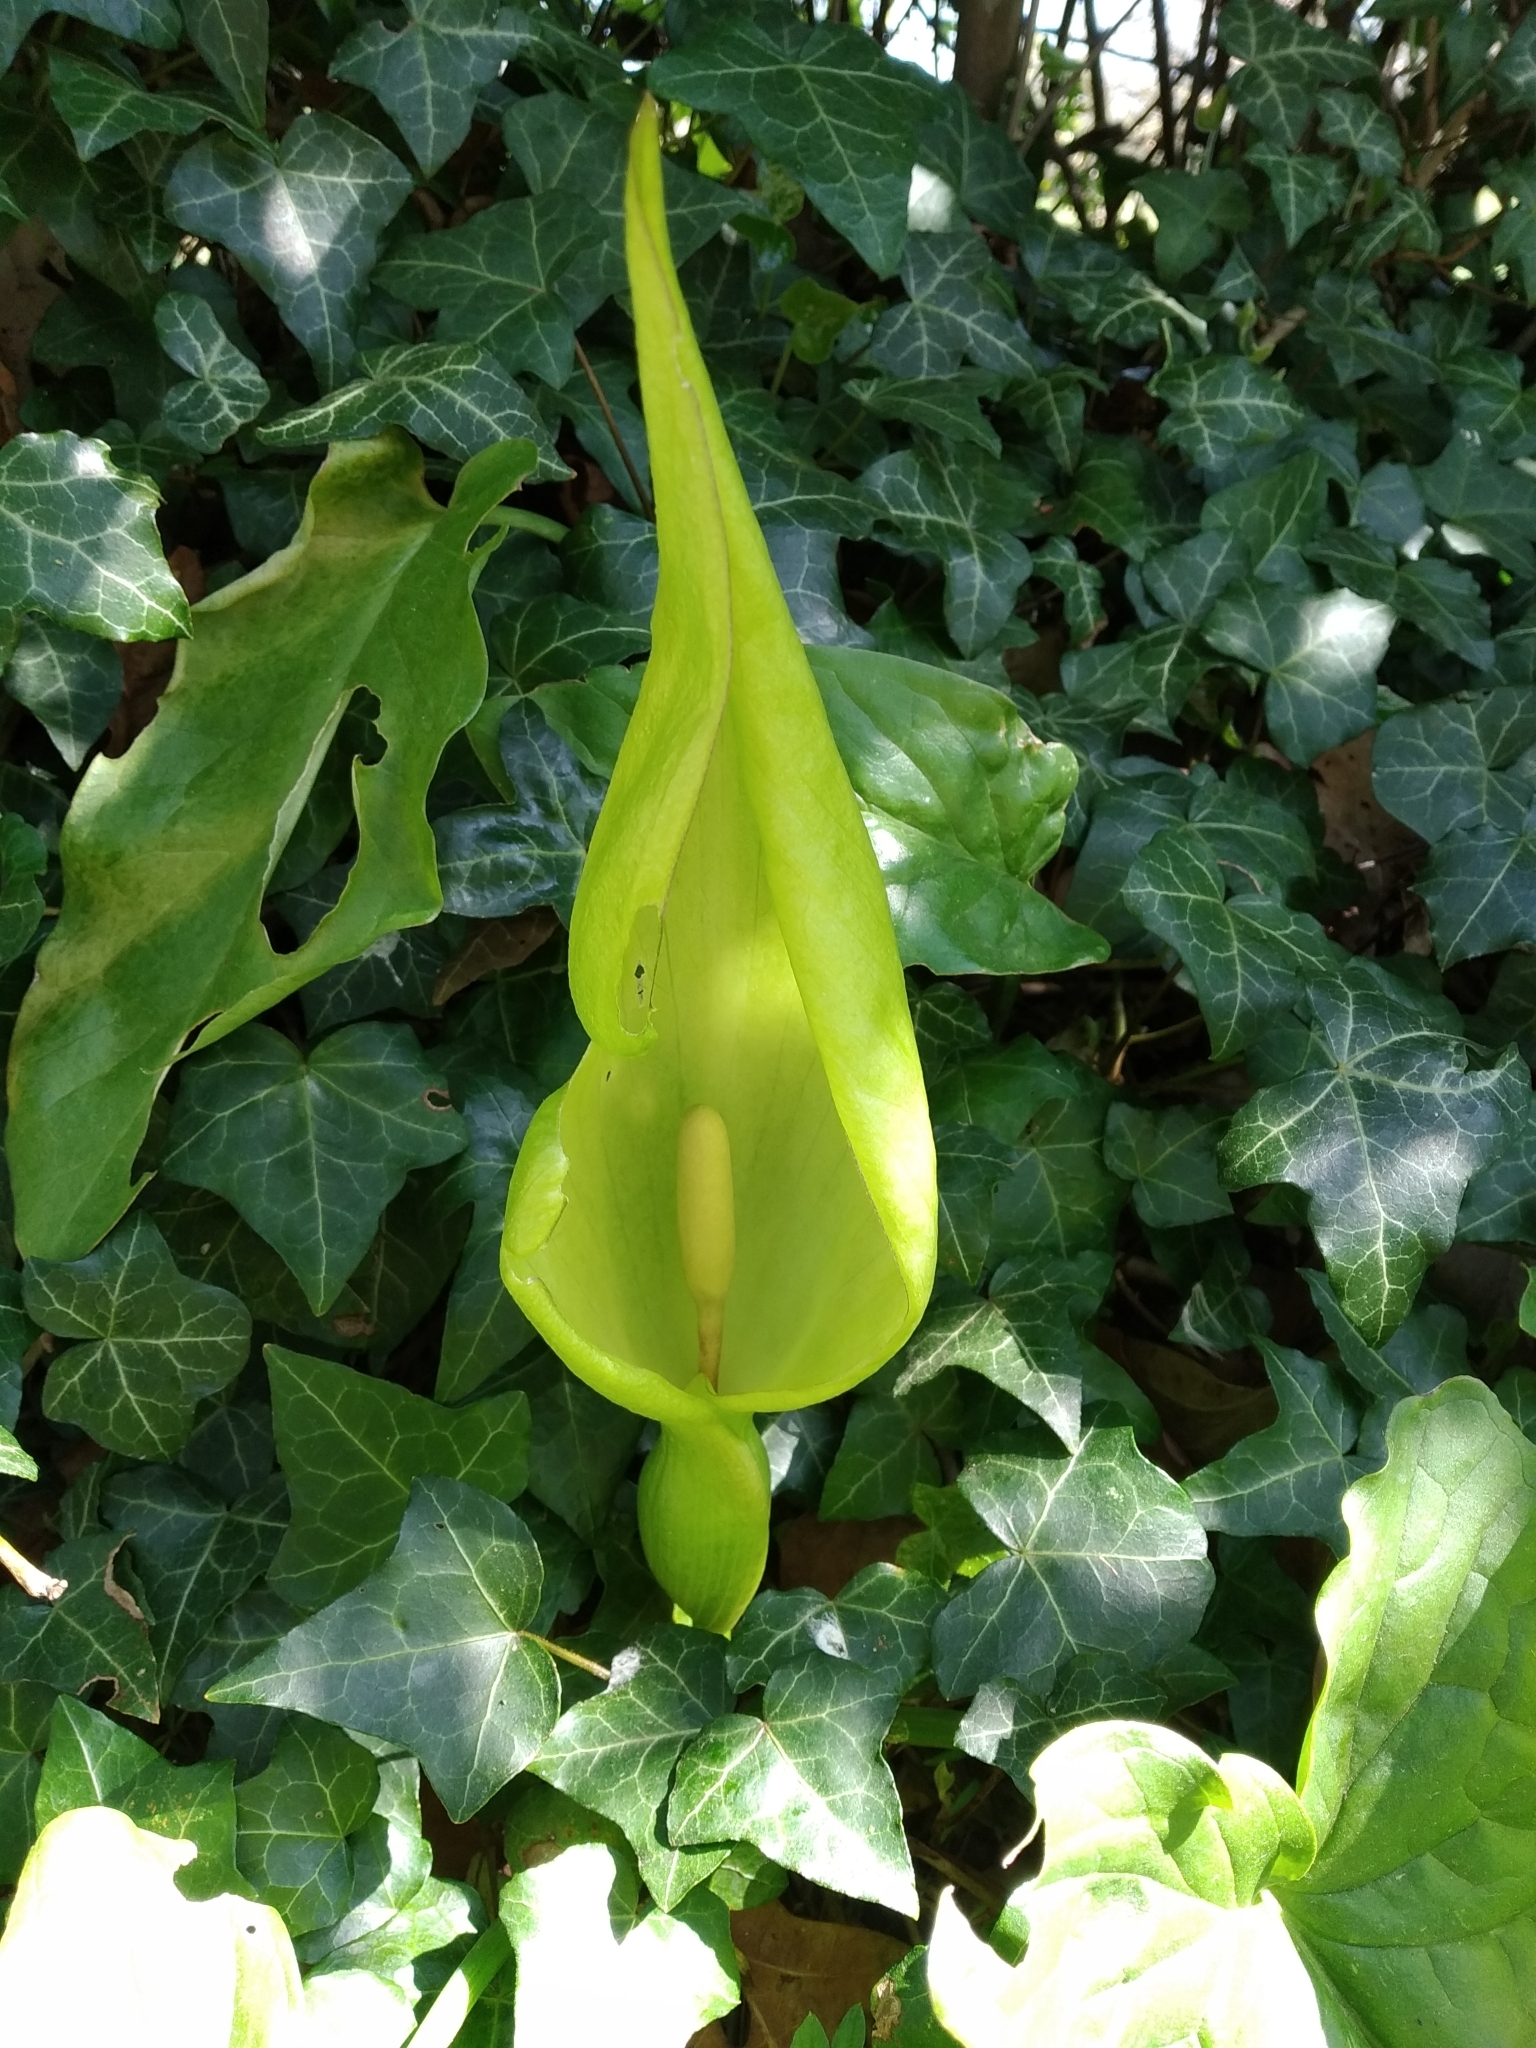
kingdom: Plantae
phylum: Tracheophyta
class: Liliopsida
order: Alismatales
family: Araceae
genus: Arum
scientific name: Arum maculatum
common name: Lords-and-ladies
